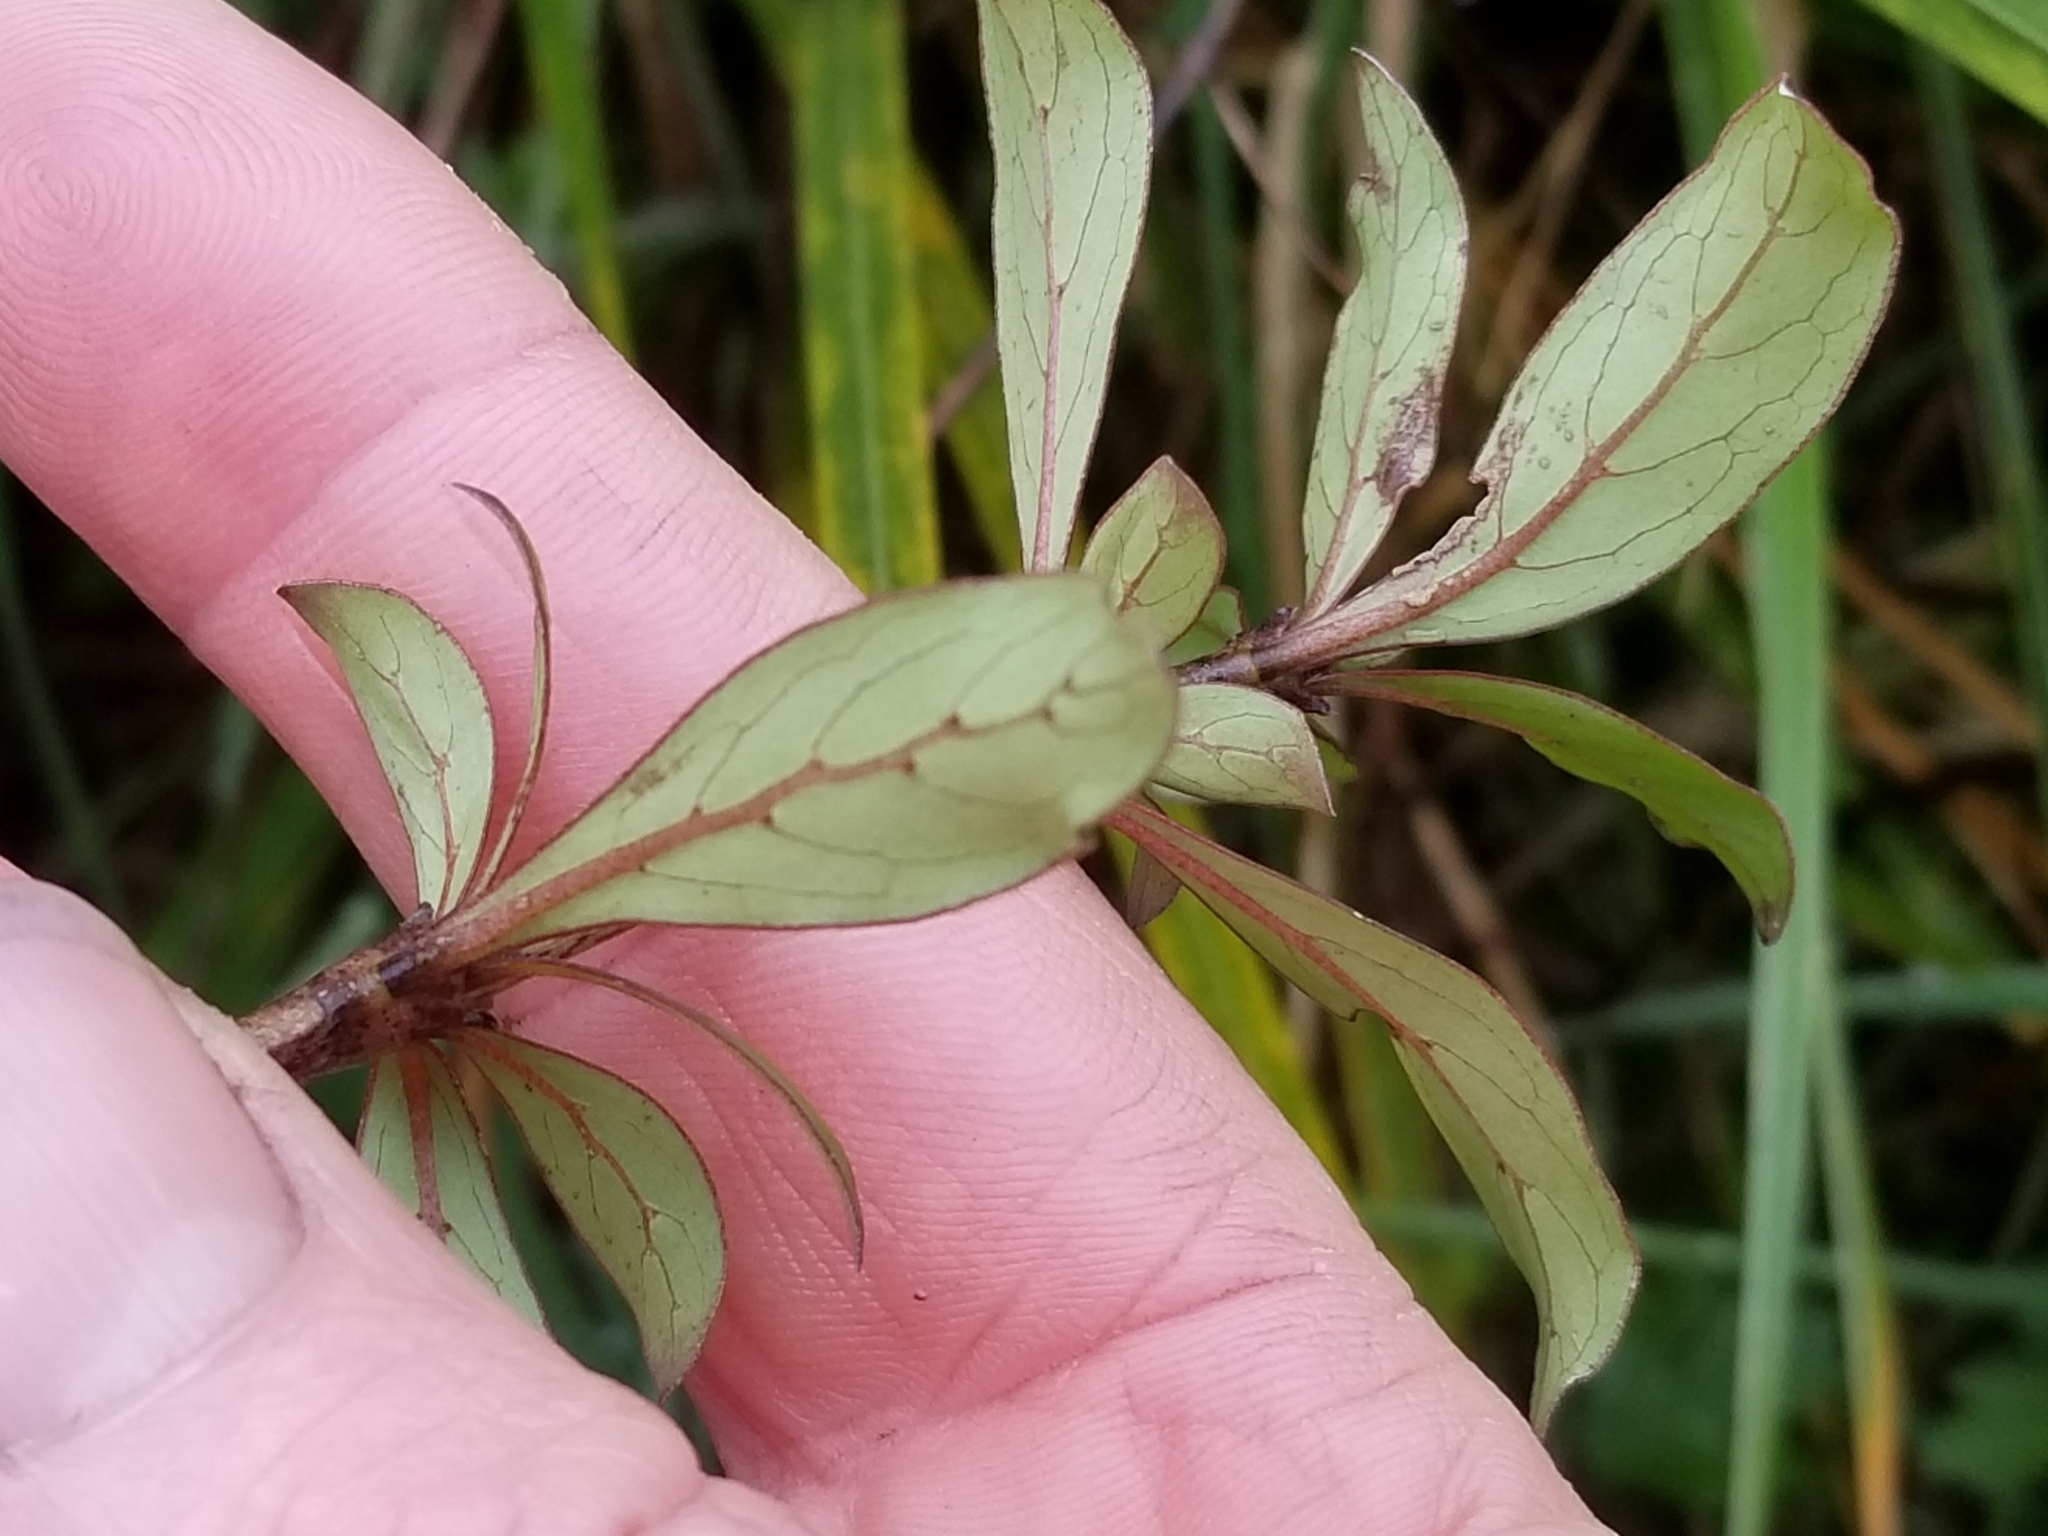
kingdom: Plantae
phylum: Tracheophyta
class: Magnoliopsida
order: Gentianales
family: Rubiaceae
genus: Coprosma
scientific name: Coprosma cunninghamii
